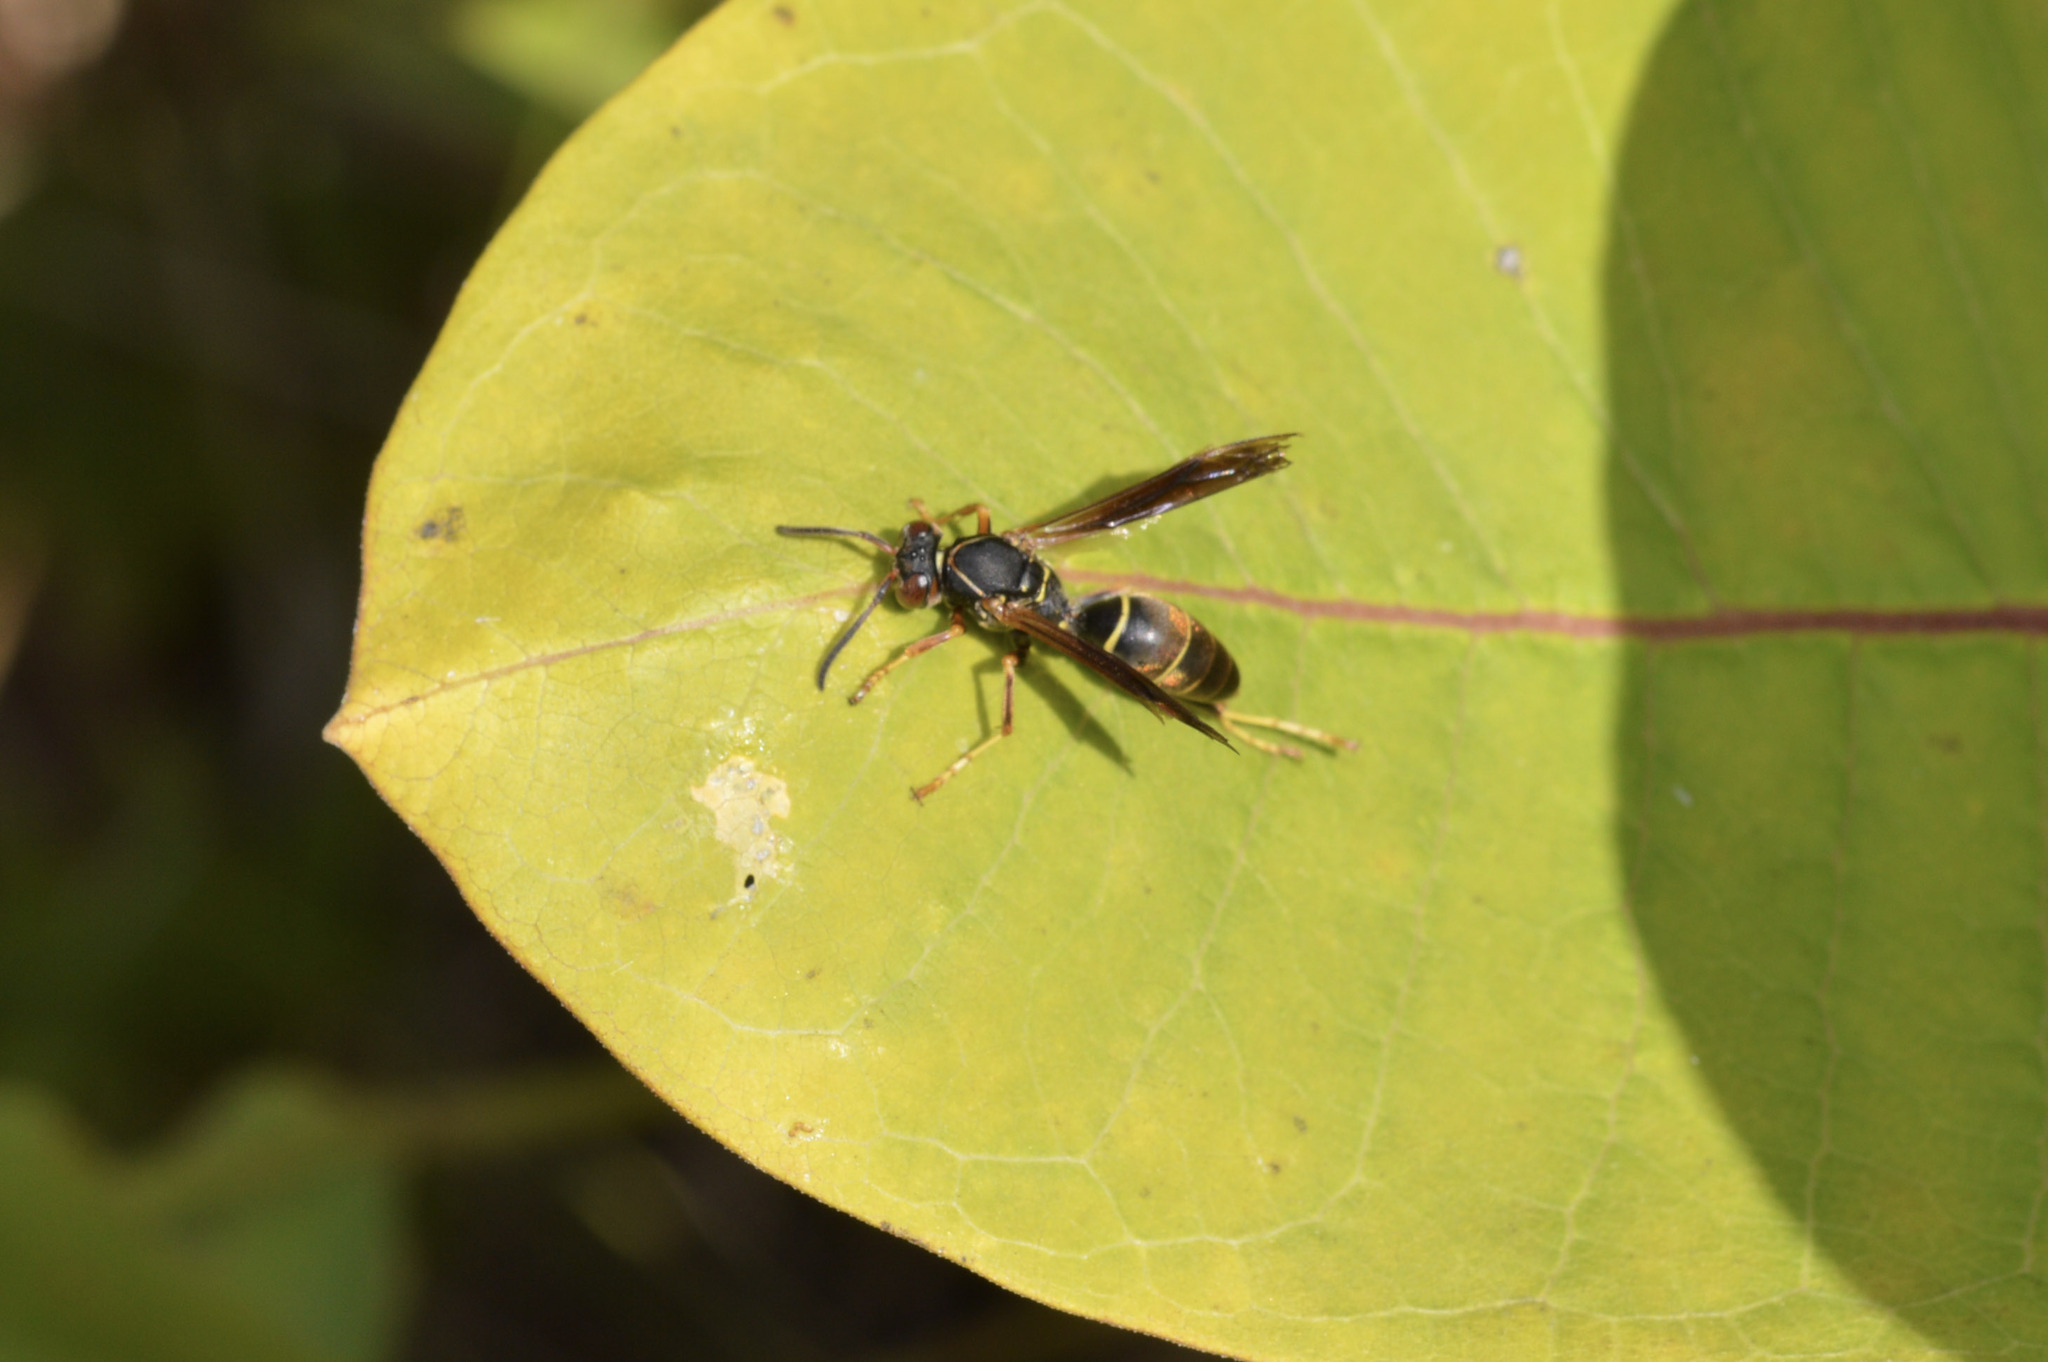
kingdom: Animalia
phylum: Arthropoda
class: Insecta
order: Hymenoptera
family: Eumenidae
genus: Polistes
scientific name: Polistes fuscatus
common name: Dark paper wasp
